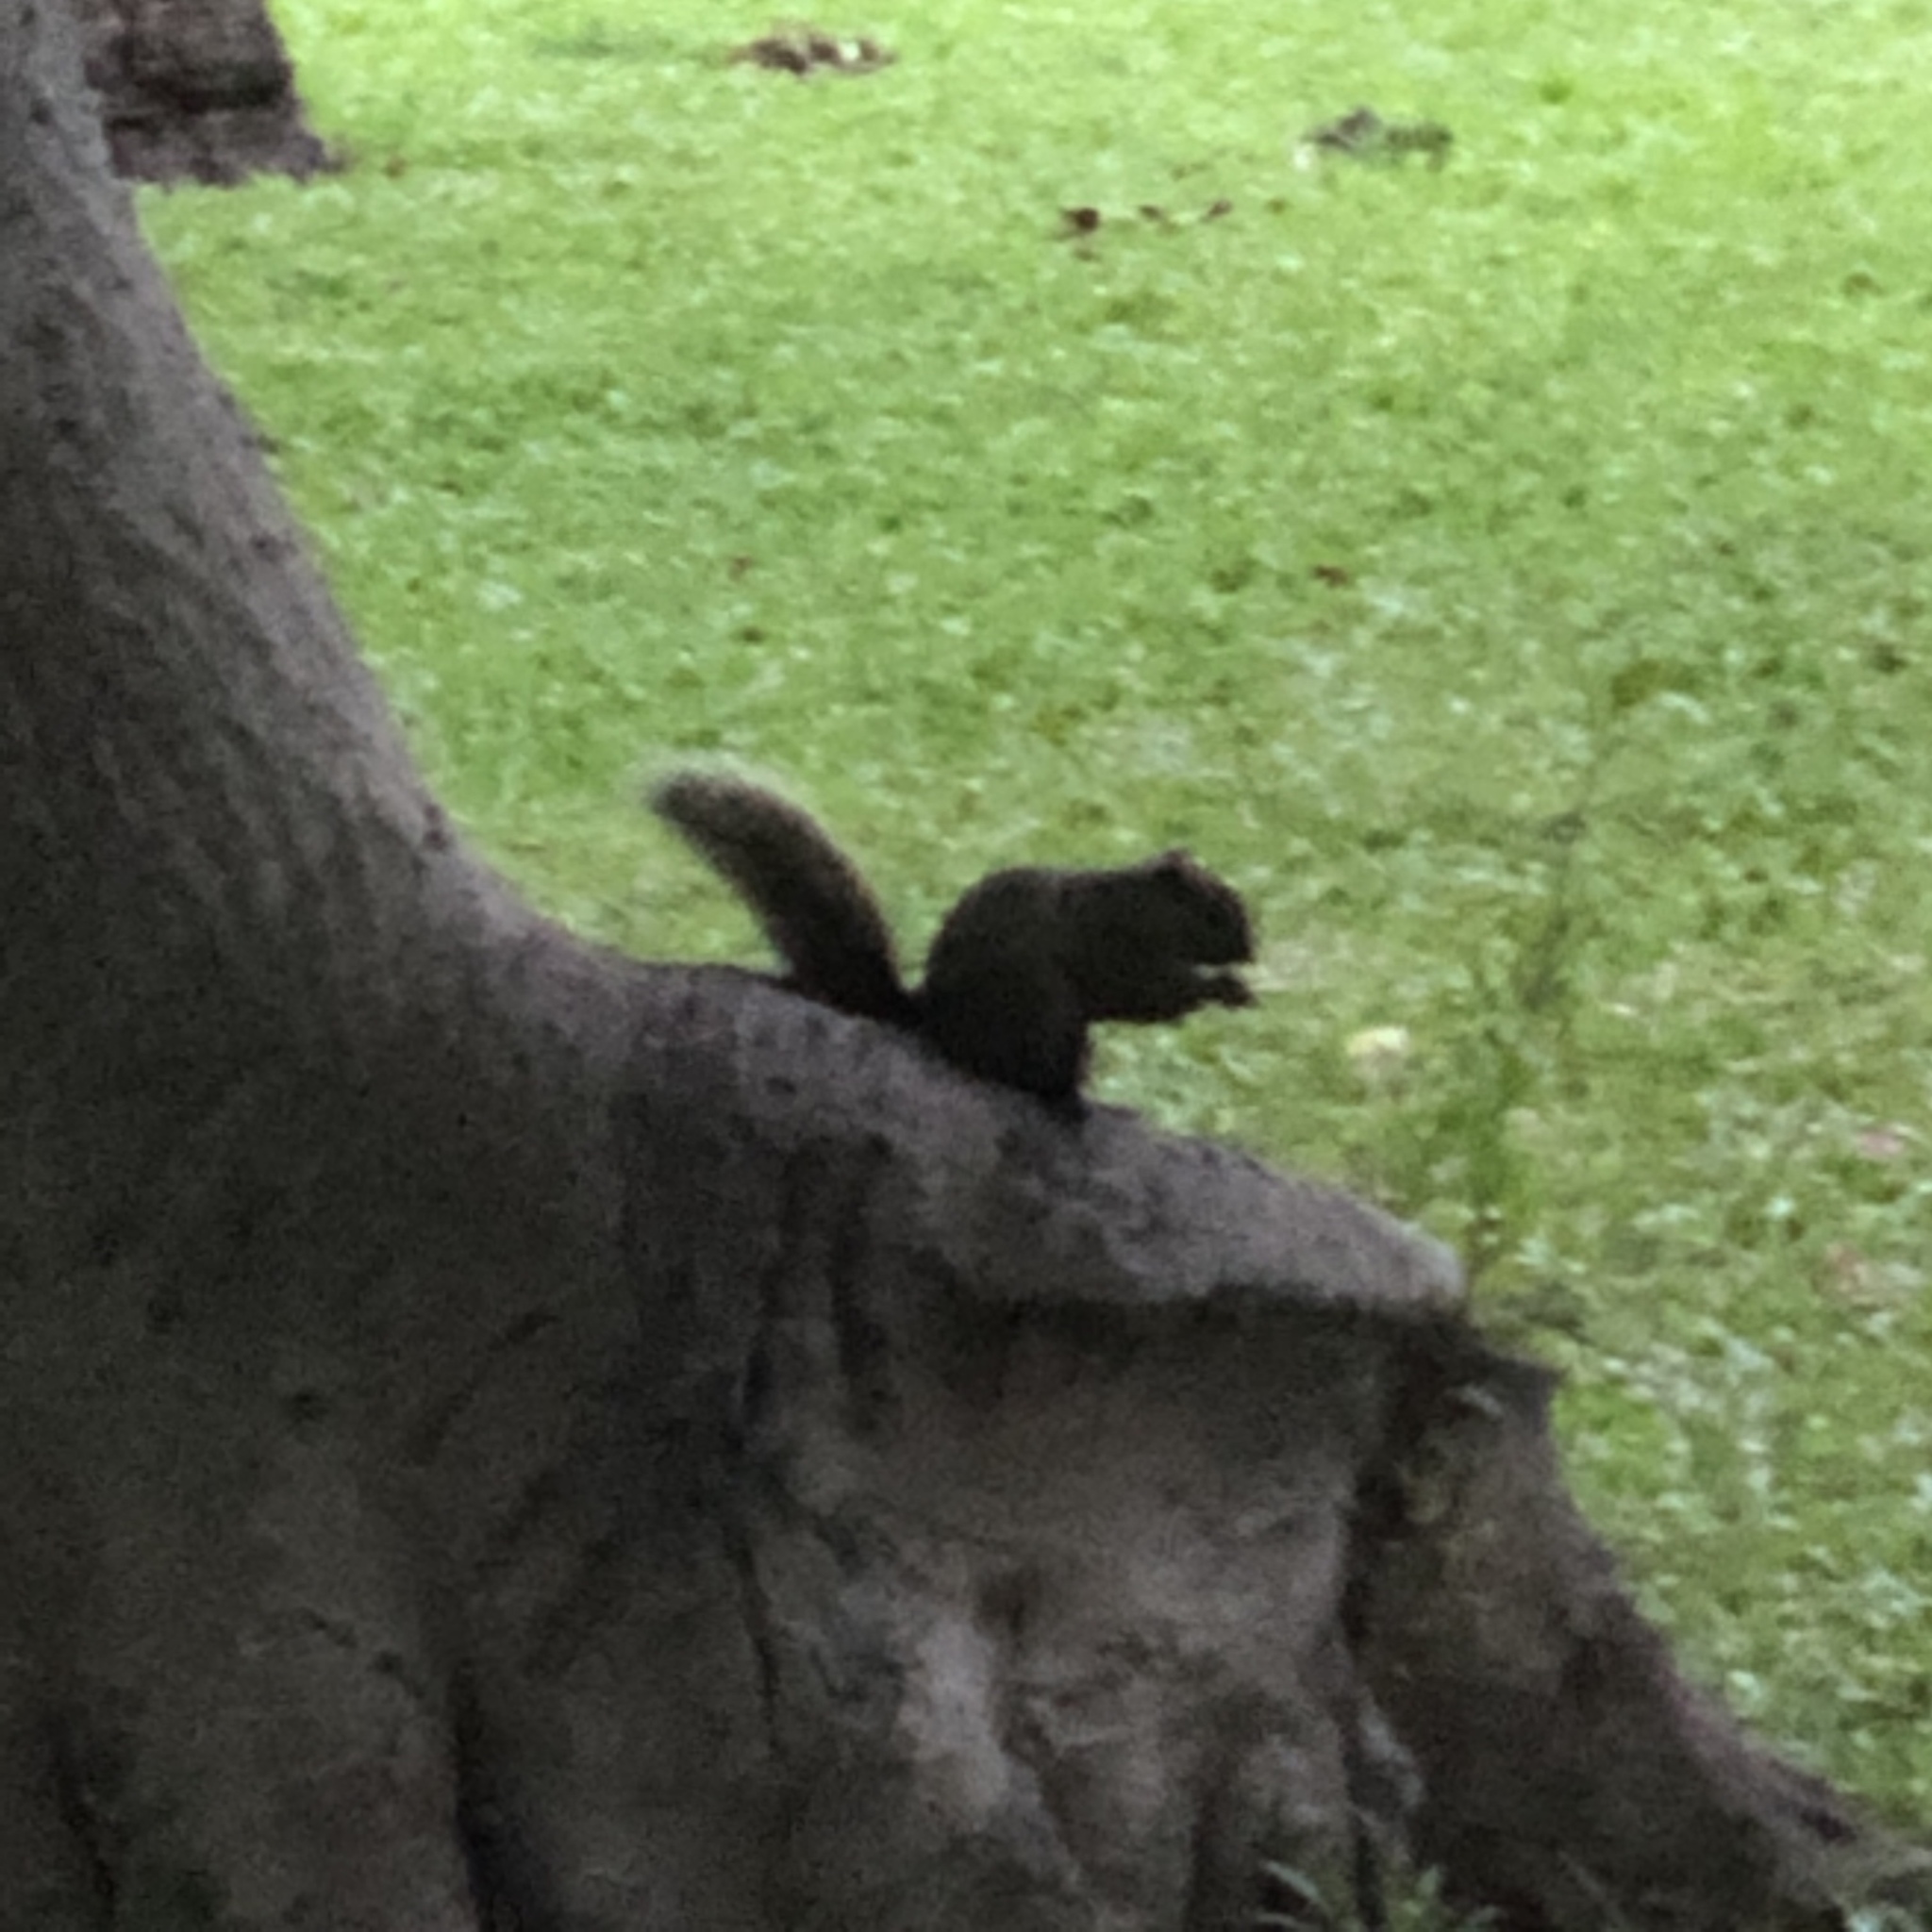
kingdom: Animalia
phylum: Chordata
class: Mammalia
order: Rodentia
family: Sciuridae
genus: Callosciurus
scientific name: Callosciurus erythraeus
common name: Pallas's squirrel
